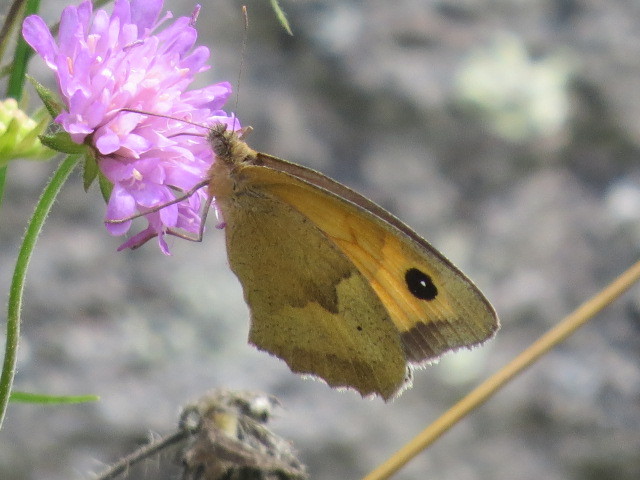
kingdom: Animalia
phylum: Arthropoda
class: Insecta
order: Lepidoptera
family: Nymphalidae
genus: Maniola
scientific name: Maniola jurtina
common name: Meadow brown
